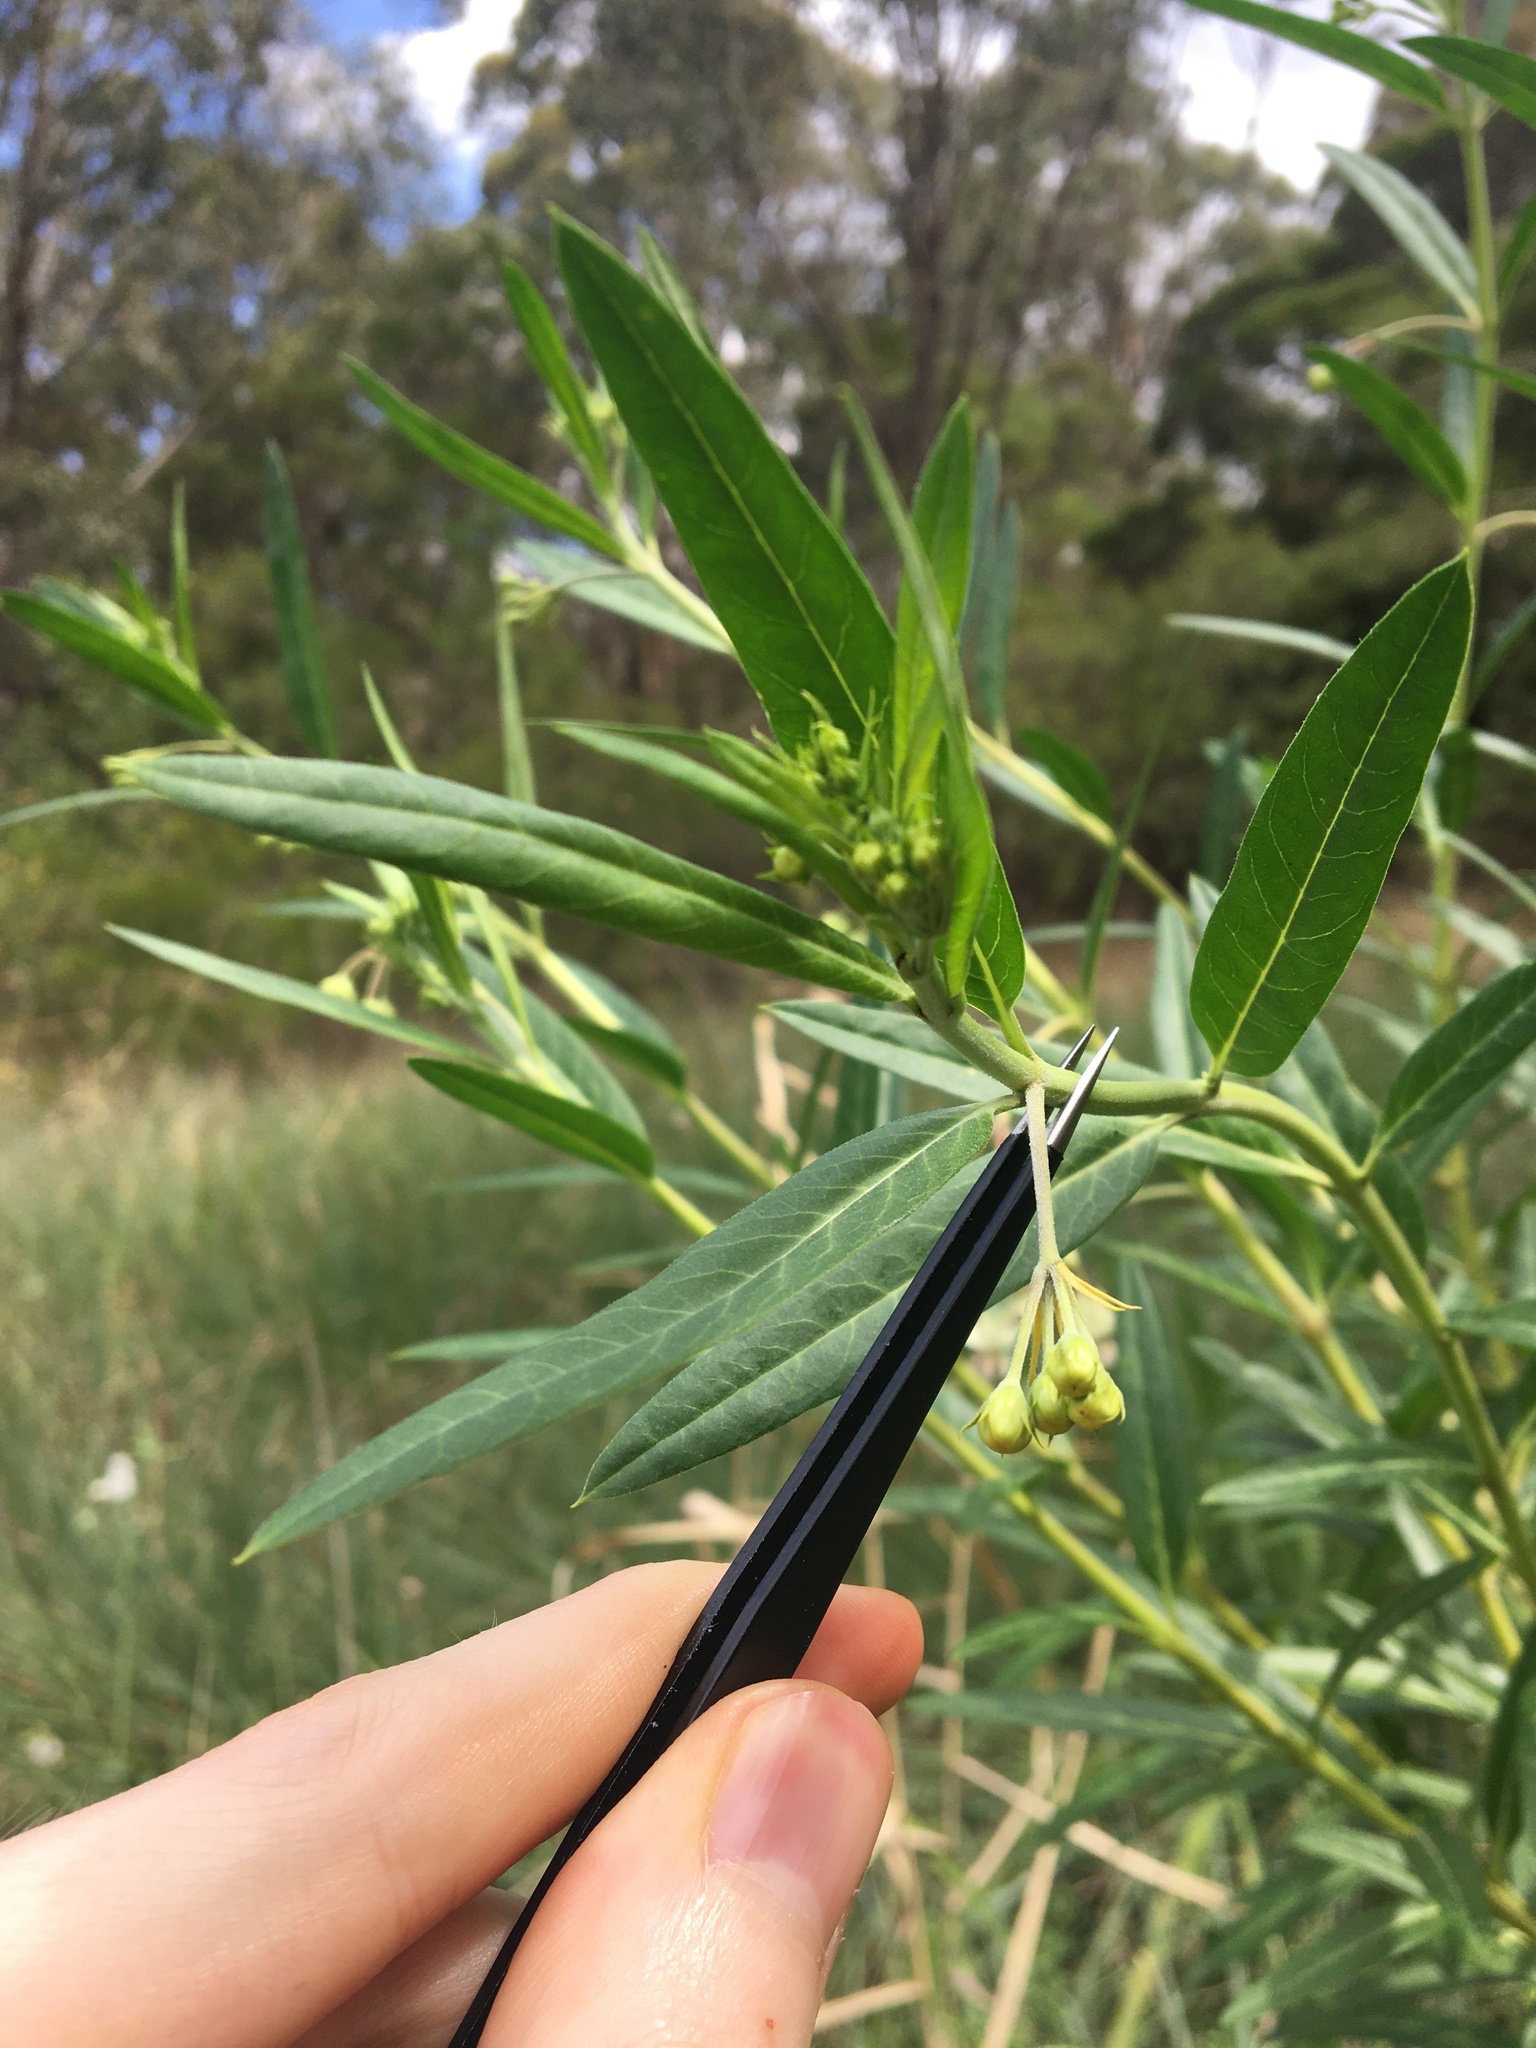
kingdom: Plantae
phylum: Tracheophyta
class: Magnoliopsida
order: Gentianales
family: Apocynaceae
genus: Gomphocarpus
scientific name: Gomphocarpus physocarpus
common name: Balloon cotton bush
